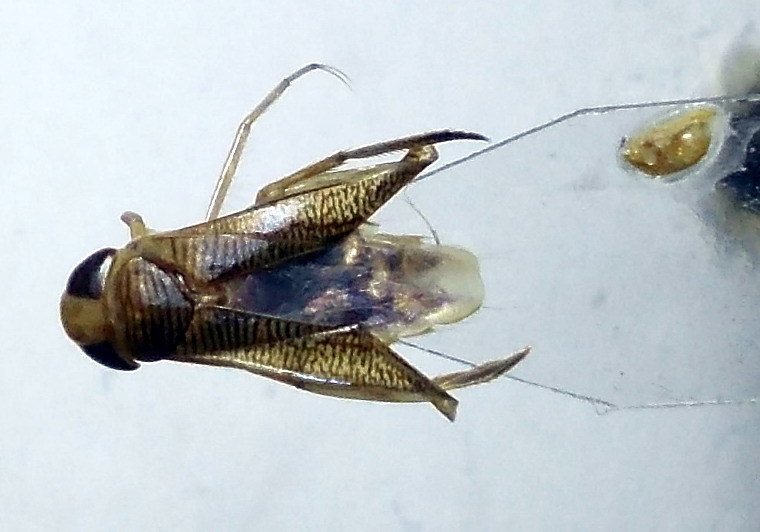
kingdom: Animalia
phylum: Arthropoda
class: Insecta
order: Hemiptera
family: Corixidae
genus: Sigara
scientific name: Sigara limitata
